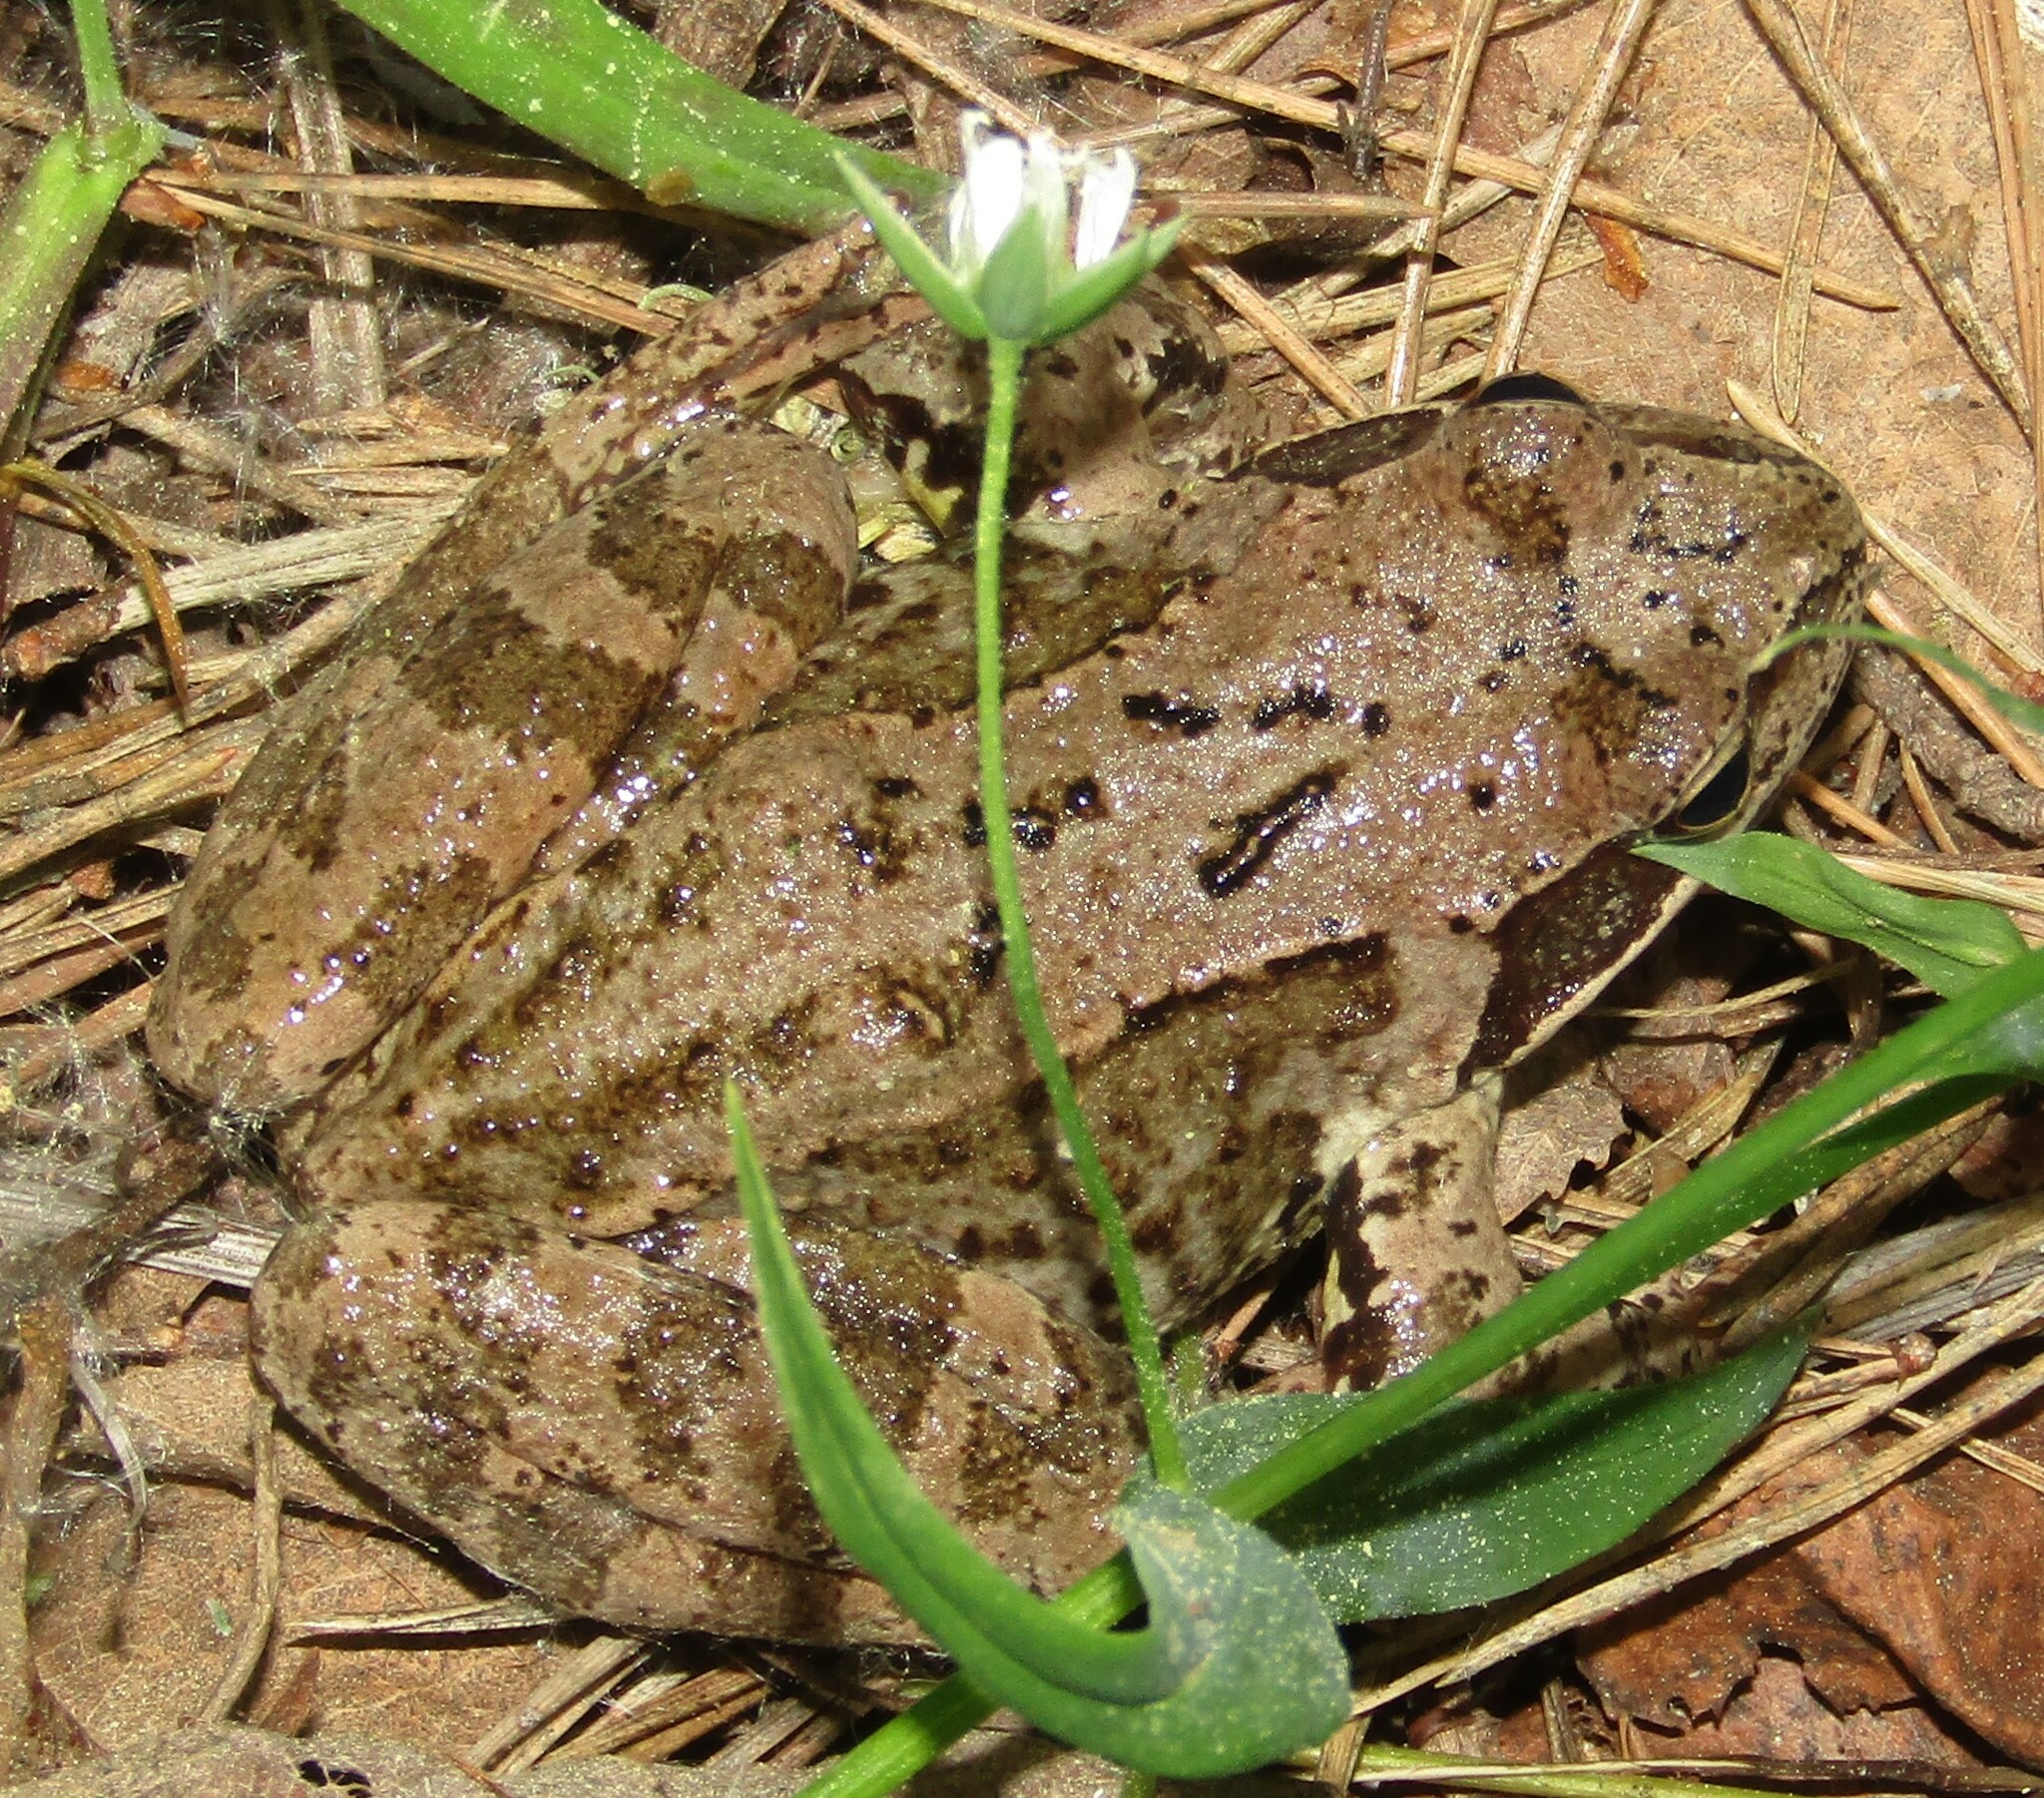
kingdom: Animalia
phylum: Chordata
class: Amphibia
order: Anura
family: Ranidae
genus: Rana
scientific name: Rana temporaria
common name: Common frog
